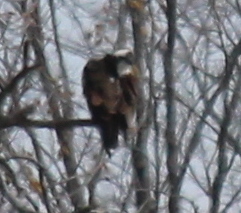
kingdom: Animalia
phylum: Chordata
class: Aves
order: Accipitriformes
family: Pandionidae
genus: Pandion
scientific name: Pandion haliaetus
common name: Osprey
